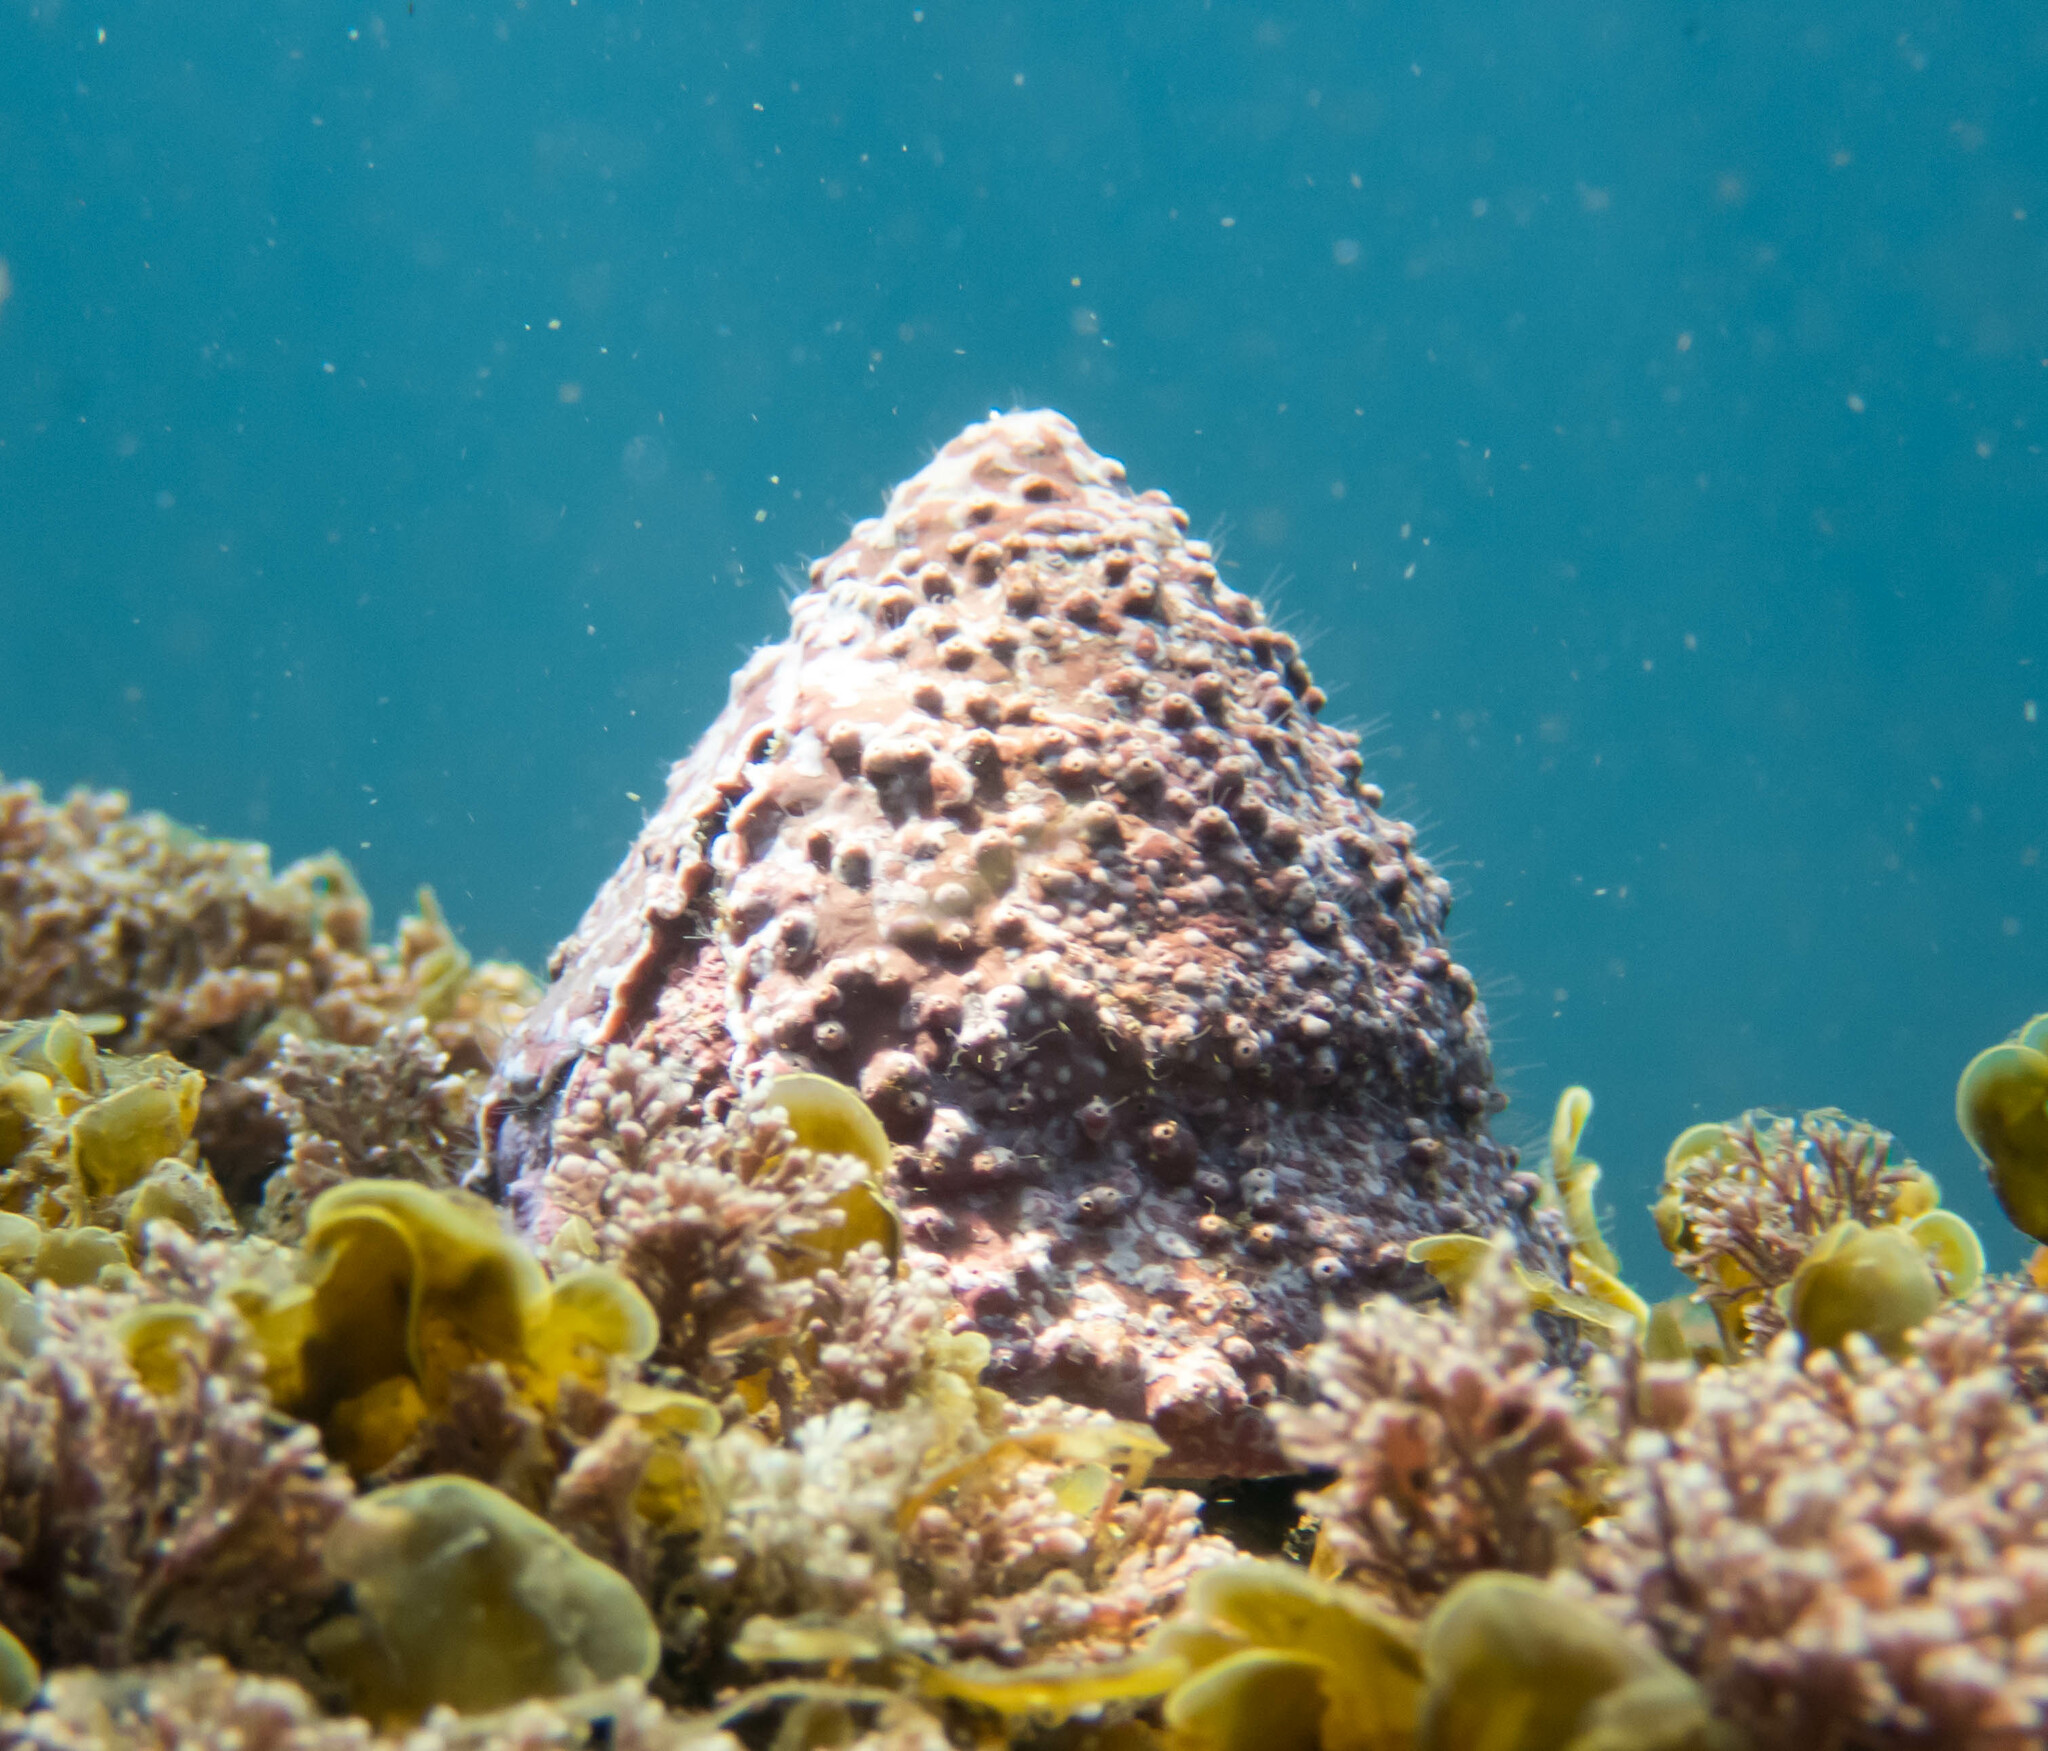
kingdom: Animalia
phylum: Mollusca
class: Gastropoda
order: Trochida
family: Turbinidae
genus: Astralium
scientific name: Astralium tentoriiforme
